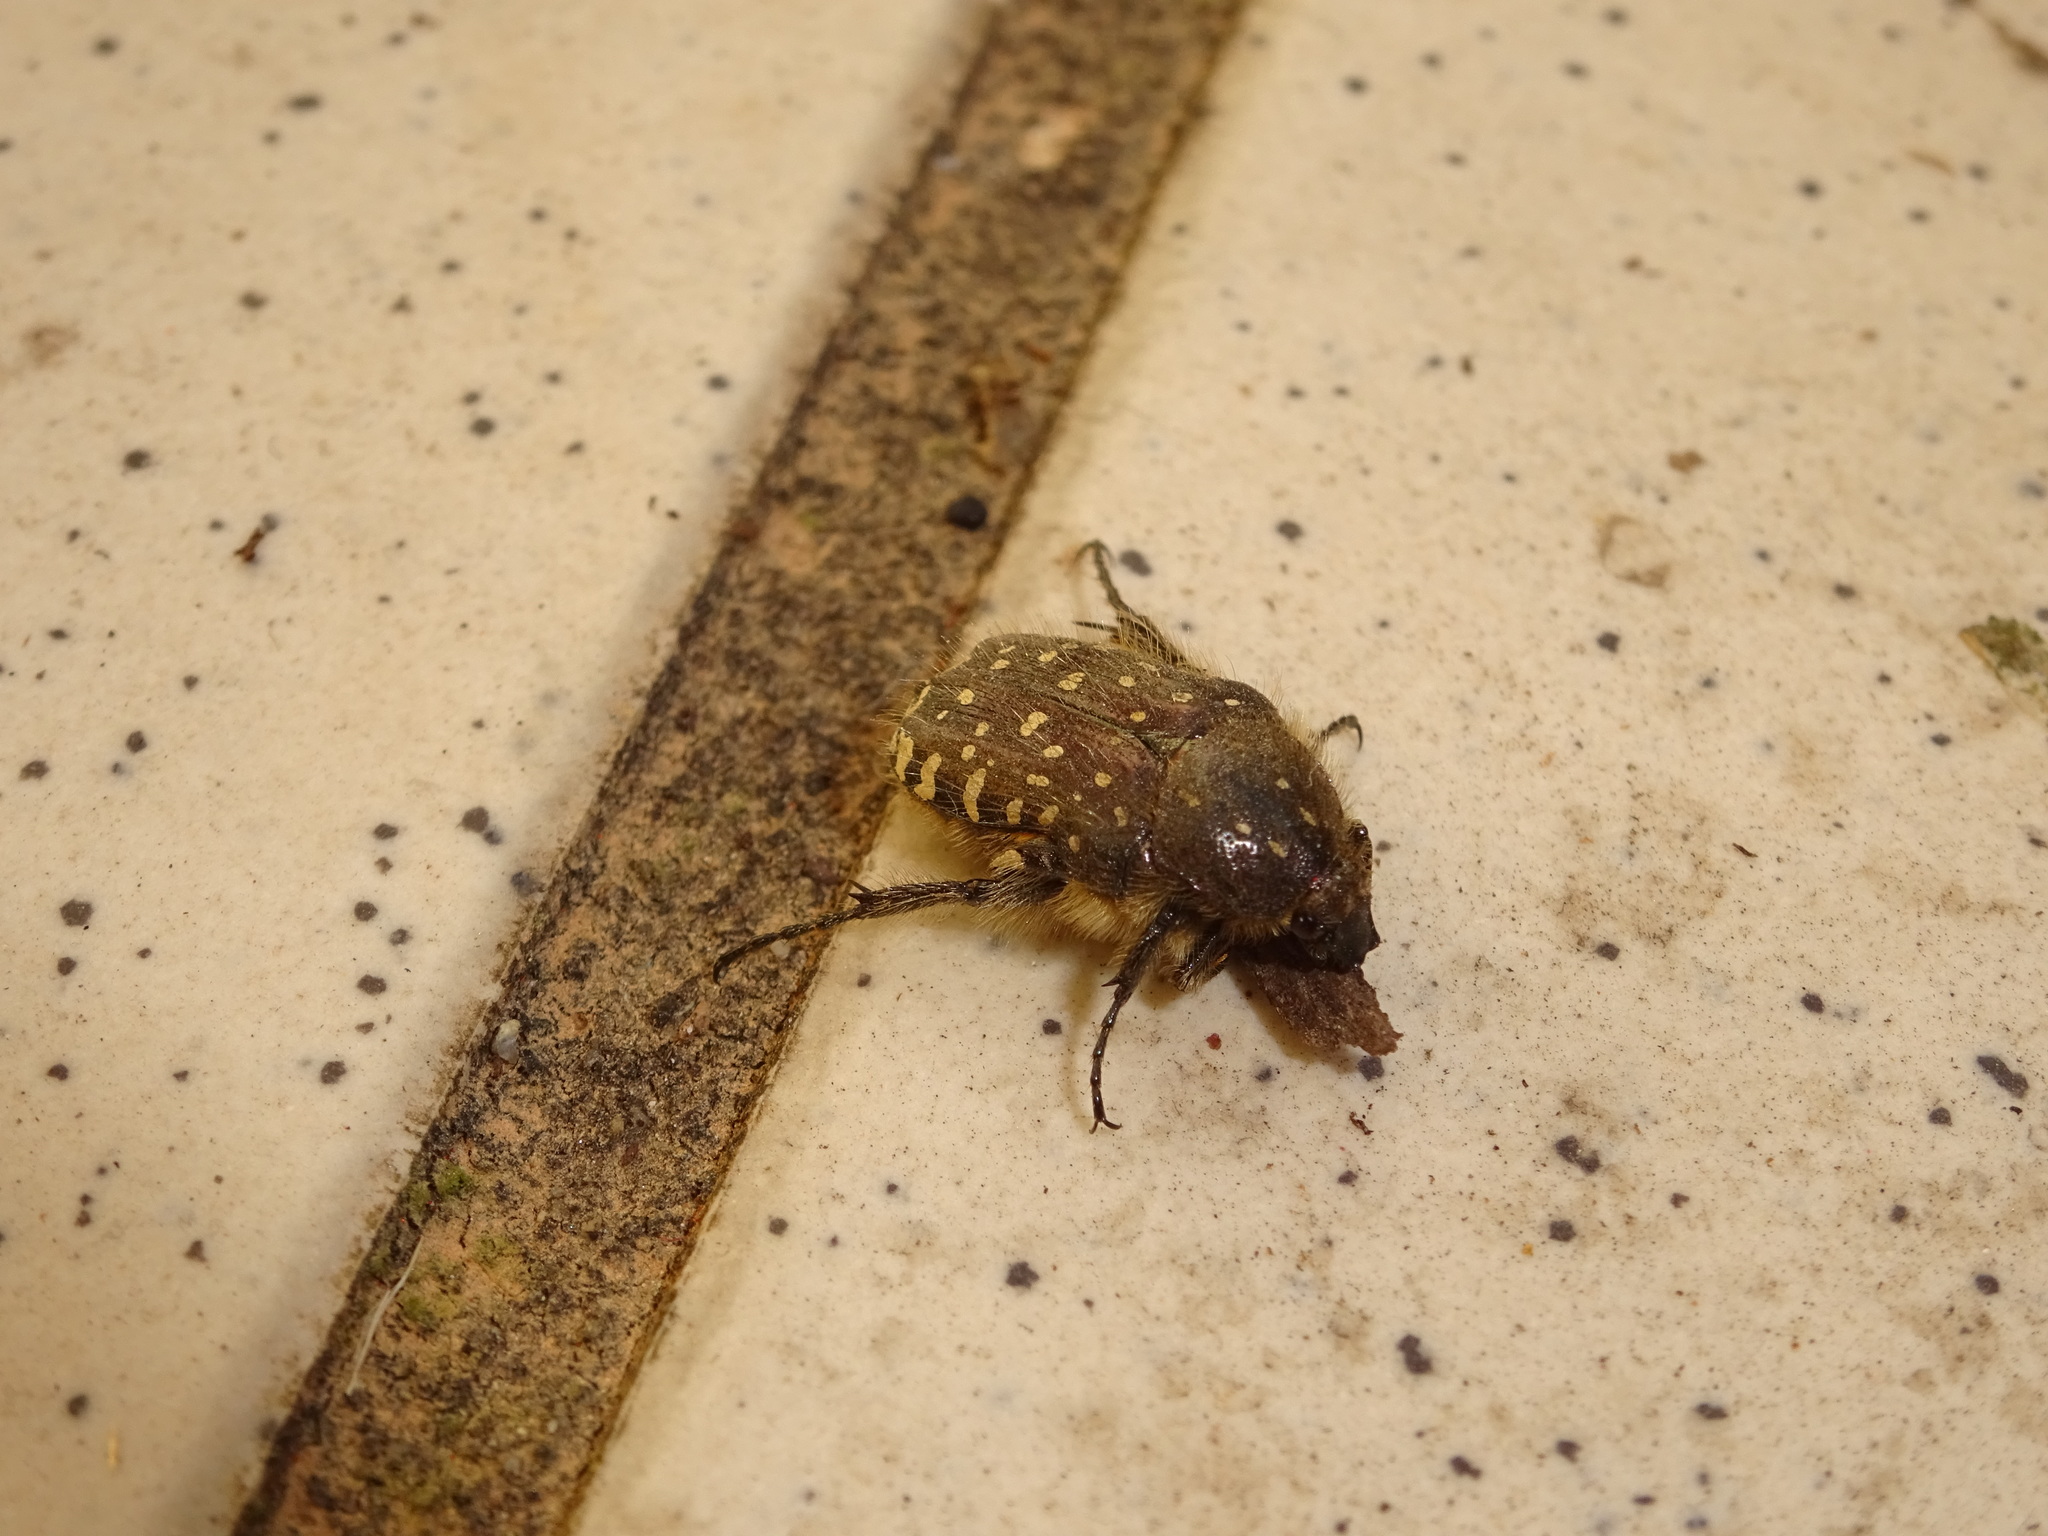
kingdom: Animalia
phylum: Arthropoda
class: Insecta
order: Coleoptera
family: Scarabaeidae
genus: Oxythyrea
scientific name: Oxythyrea funesta
